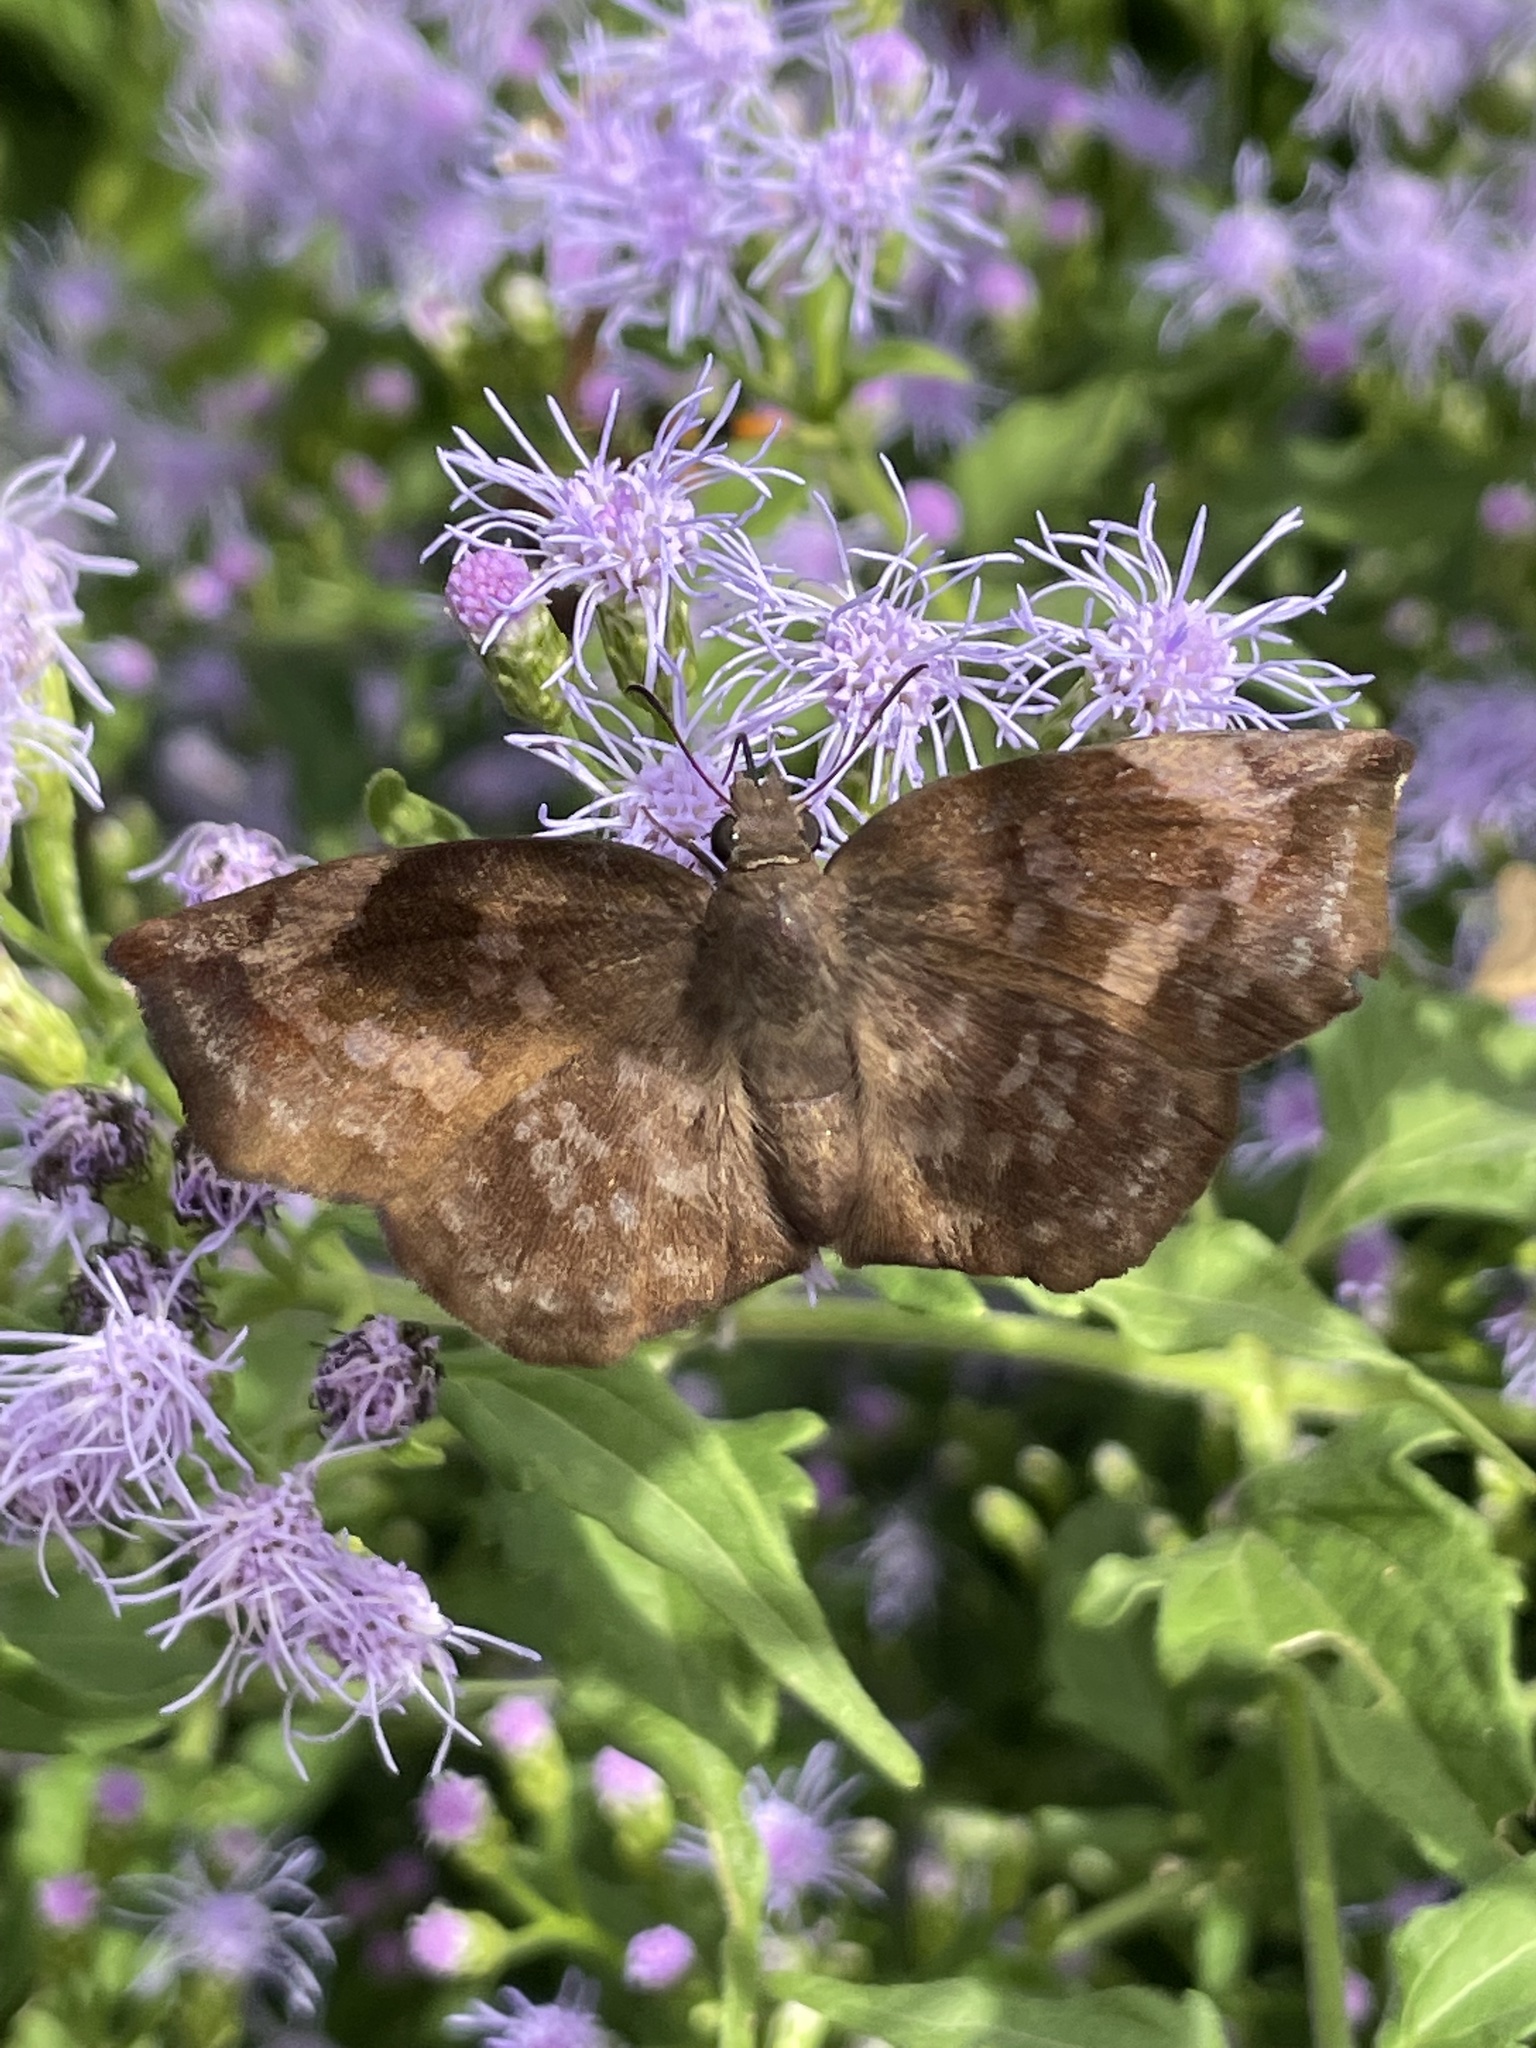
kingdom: Animalia
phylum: Arthropoda
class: Insecta
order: Lepidoptera
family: Hesperiidae
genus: Achlyodes
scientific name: Achlyodes thraso
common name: Sickle-winged skipper
